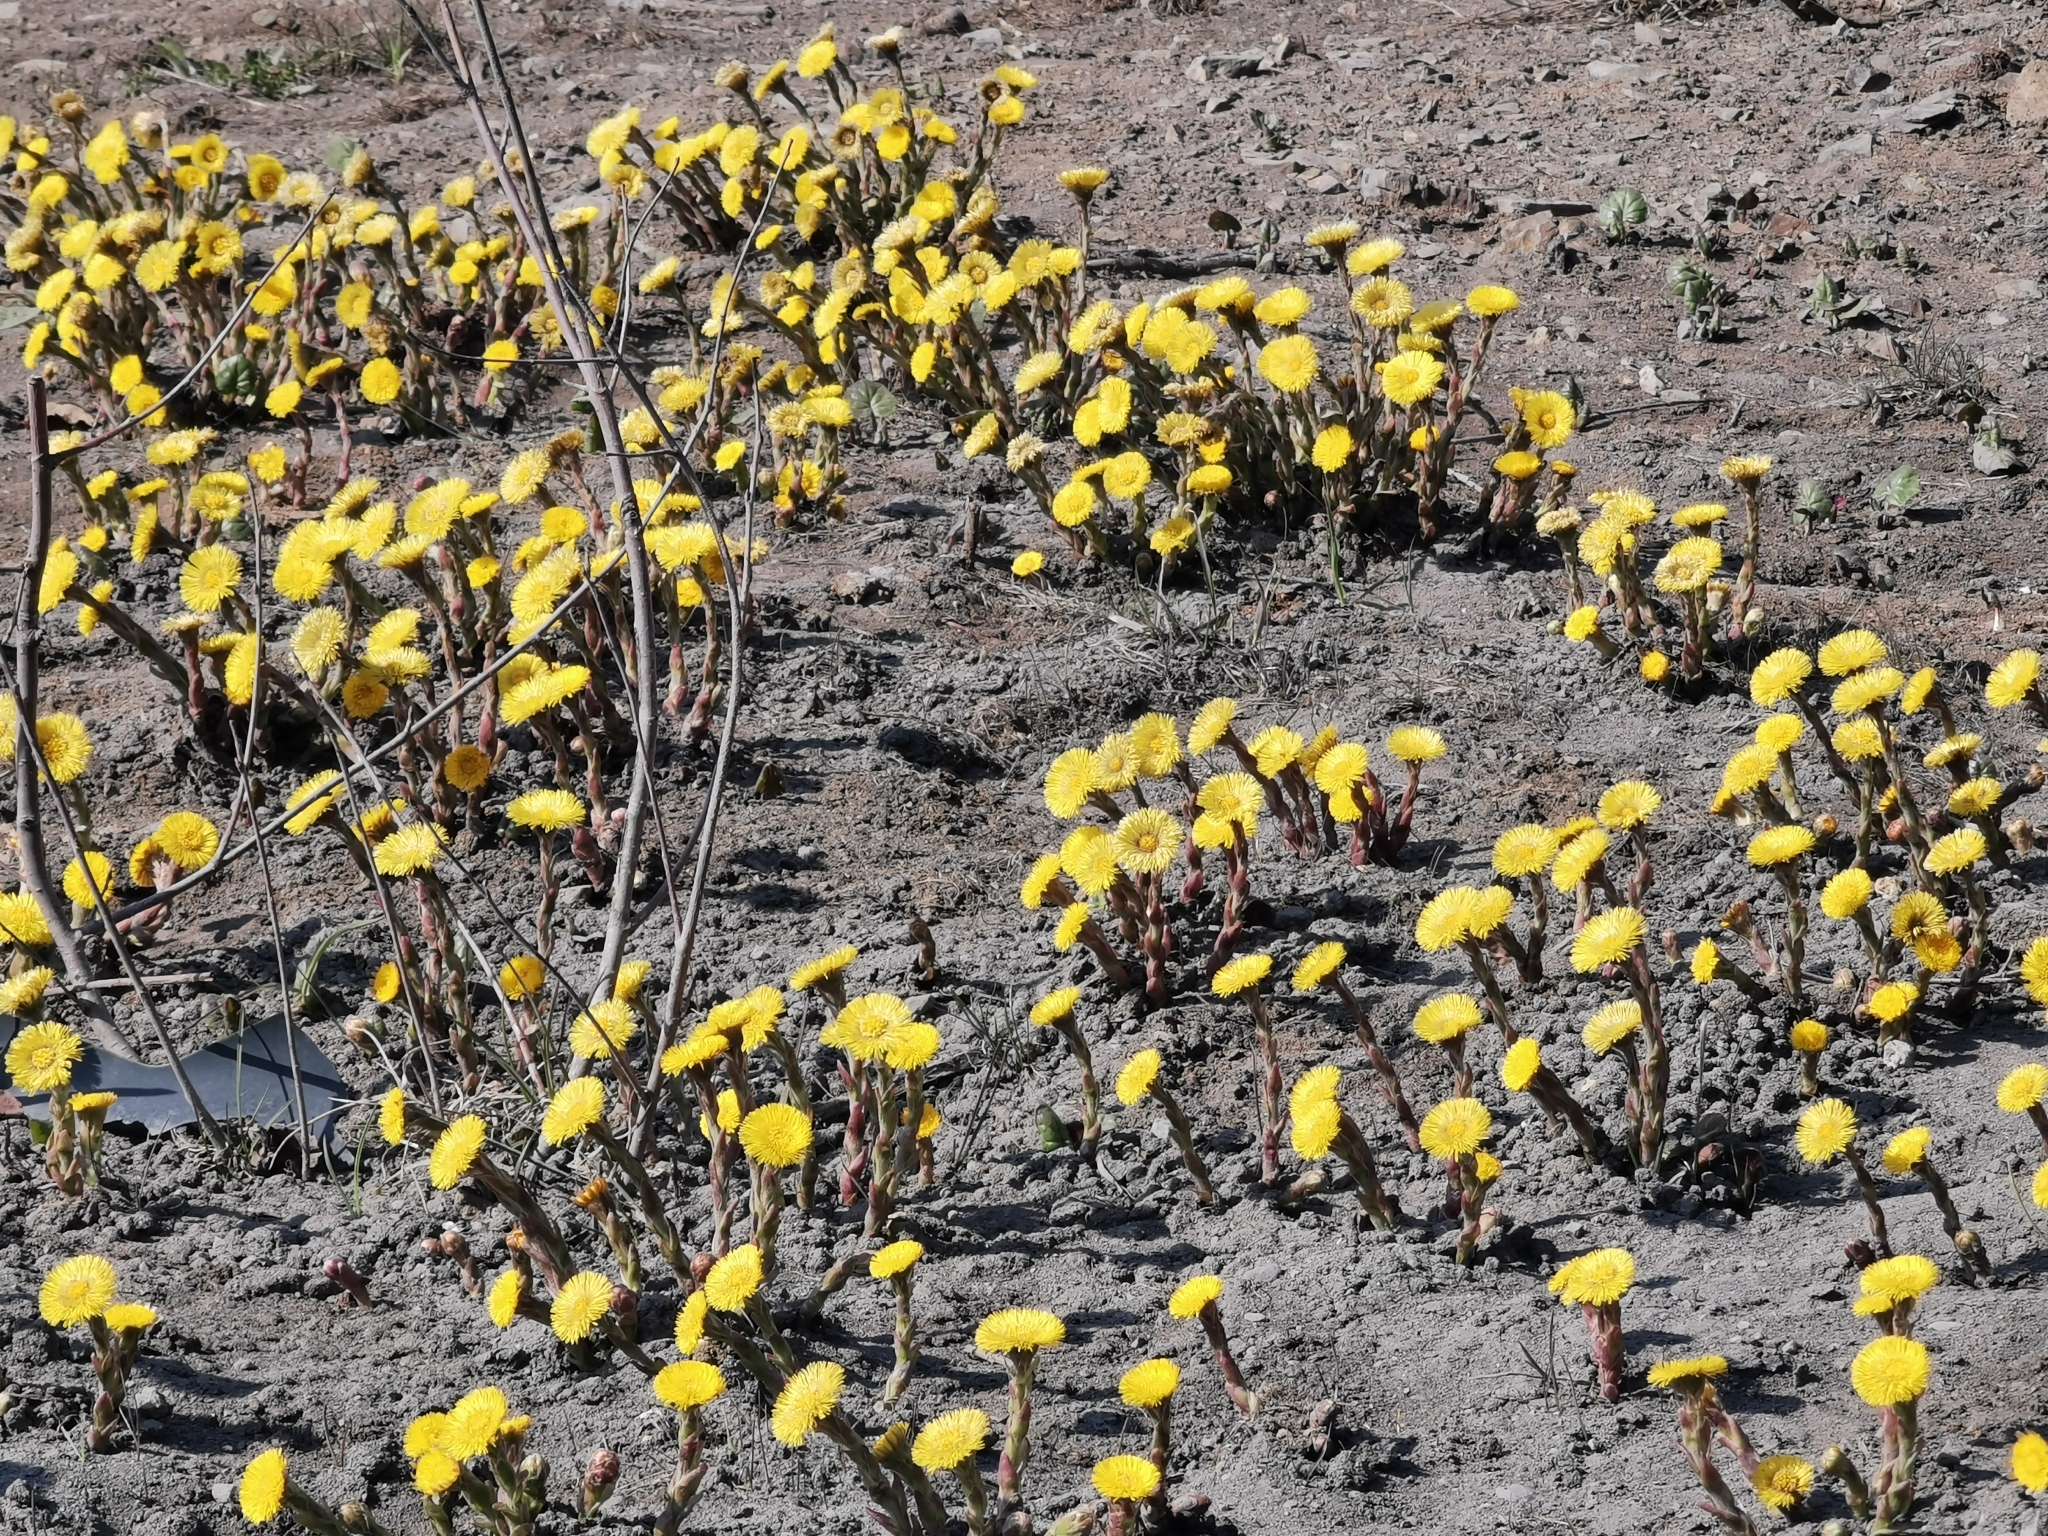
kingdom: Plantae
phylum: Tracheophyta
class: Magnoliopsida
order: Asterales
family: Asteraceae
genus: Tussilago
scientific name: Tussilago farfara
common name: Coltsfoot
